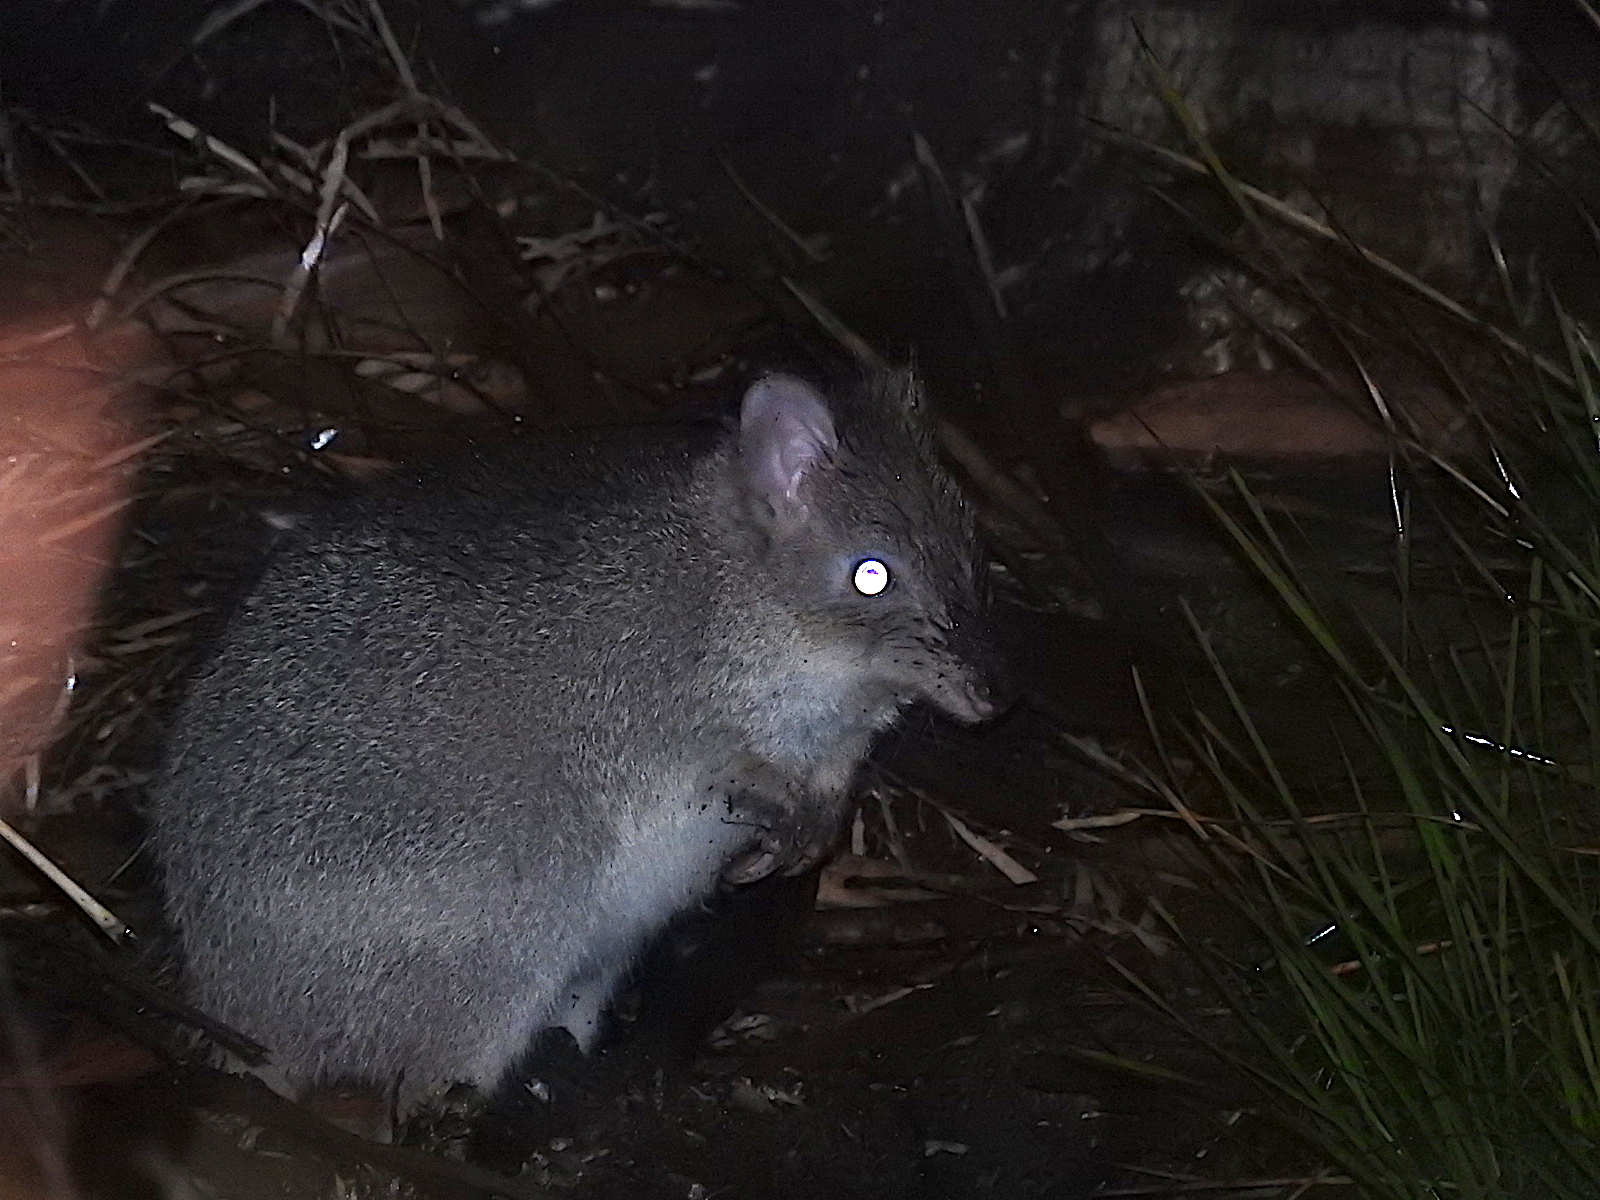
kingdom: Animalia
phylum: Chordata
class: Mammalia
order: Diprotodontia
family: Potoroidae
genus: Bettongia
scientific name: Bettongia gaimardi
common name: Eastern bettong
